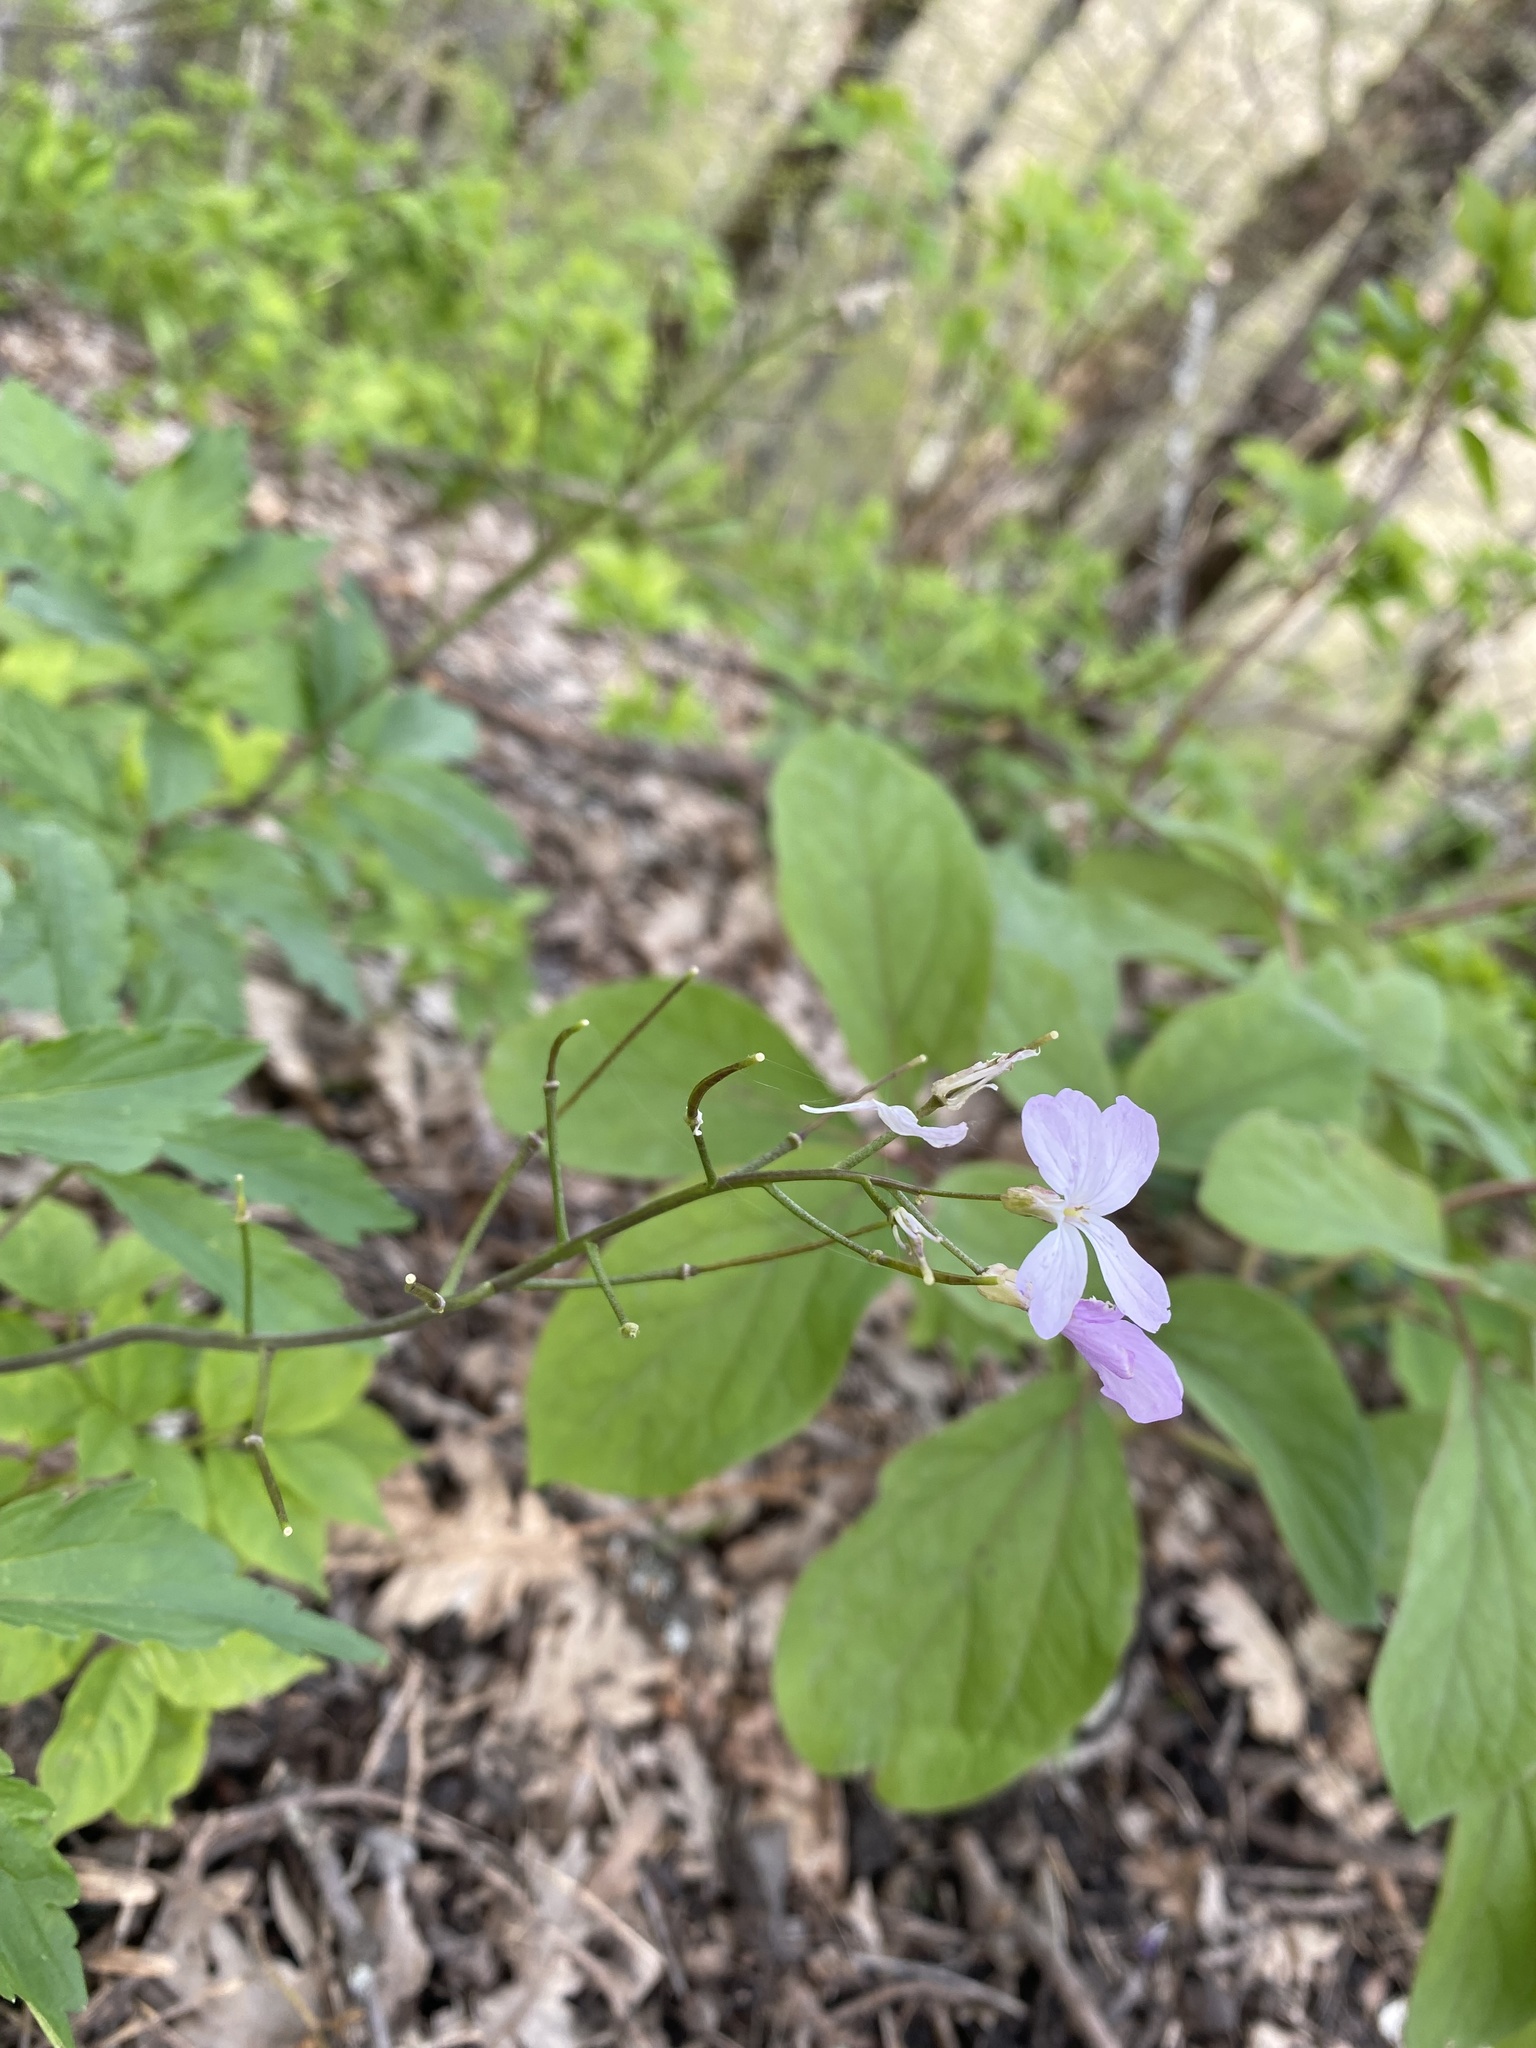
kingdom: Plantae
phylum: Tracheophyta
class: Magnoliopsida
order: Brassicales
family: Brassicaceae
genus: Cardamine
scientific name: Cardamine quinquefolia
